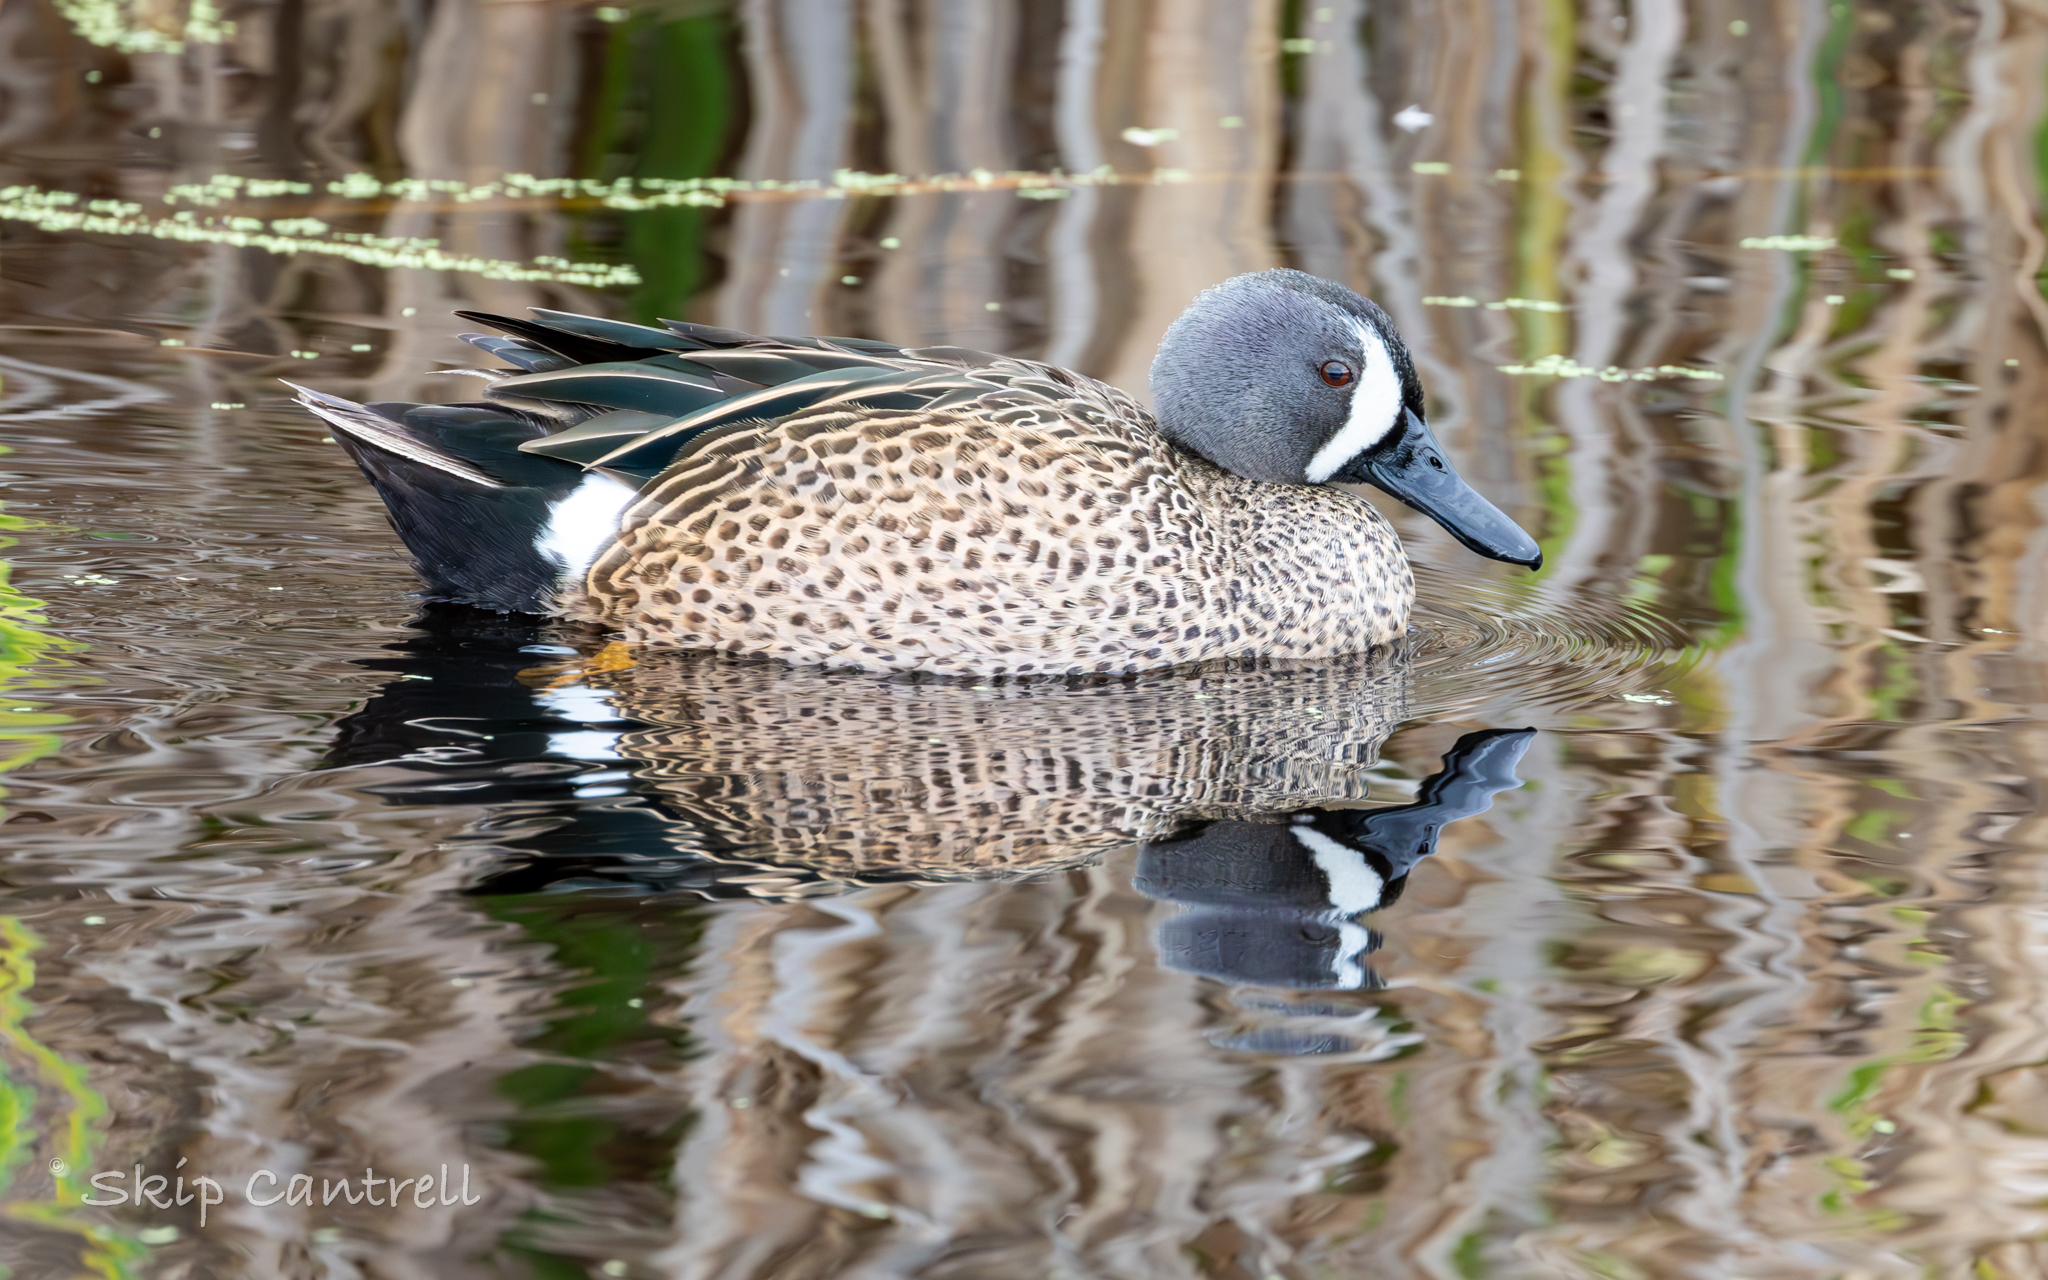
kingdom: Animalia
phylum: Chordata
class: Aves
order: Anseriformes
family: Anatidae
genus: Spatula
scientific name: Spatula discors
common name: Blue-winged teal
